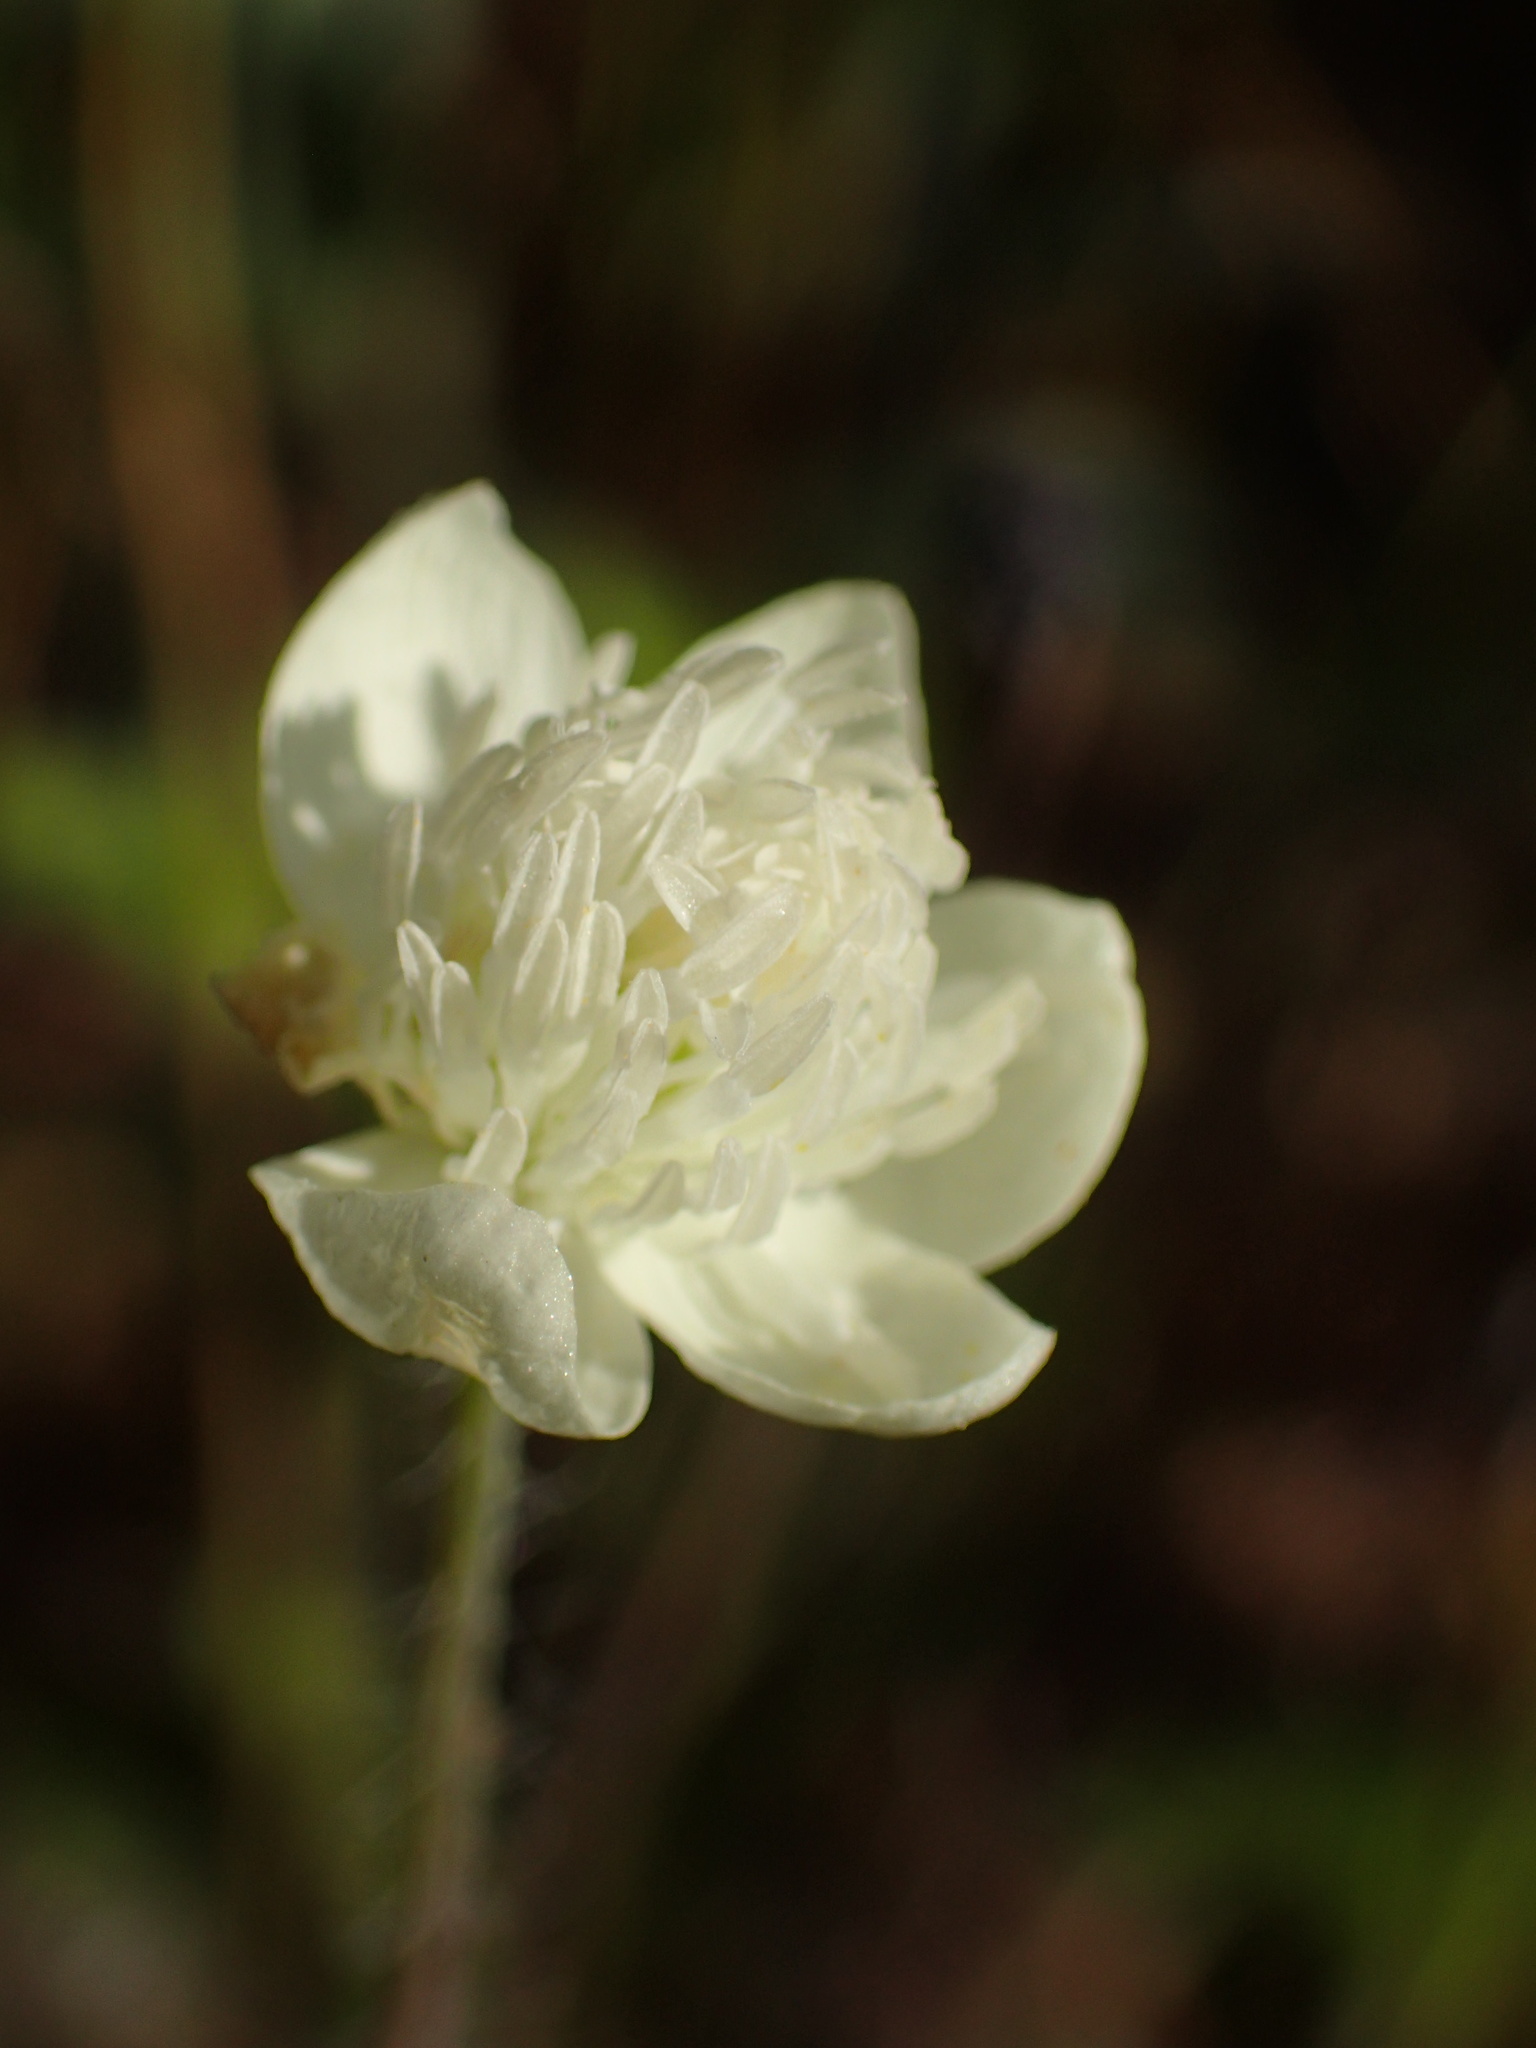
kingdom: Plantae
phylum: Tracheophyta
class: Magnoliopsida
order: Ranunculales
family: Papaveraceae
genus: Platystemon
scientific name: Platystemon californicus
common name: Cream-cups
